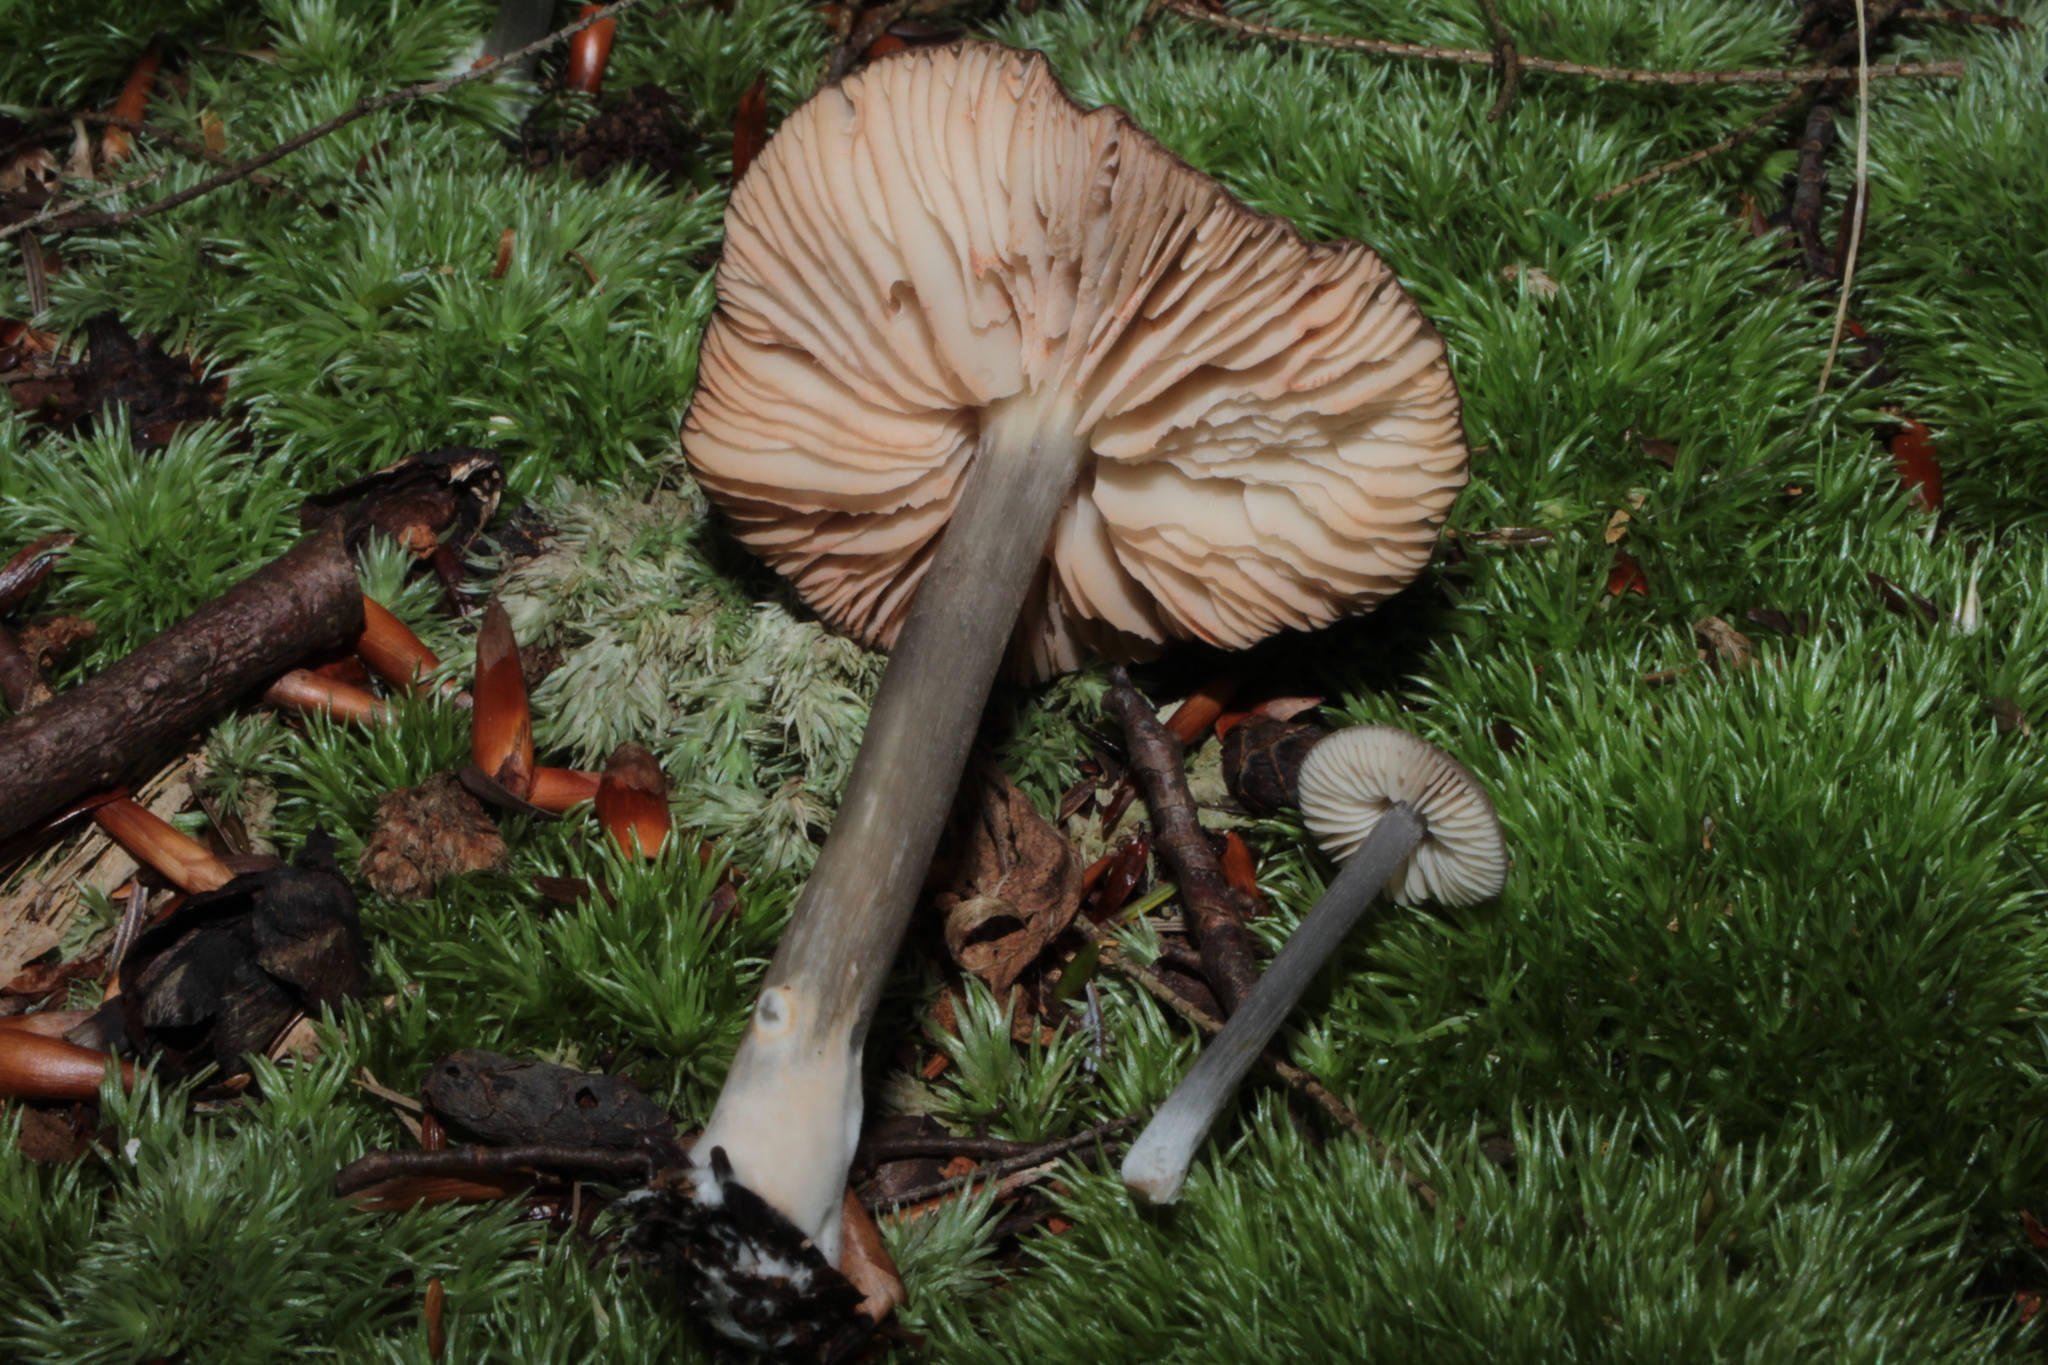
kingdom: Fungi
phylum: Basidiomycota
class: Agaricomycetes
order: Agaricales
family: Entolomataceae
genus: Entoloma
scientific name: Entoloma fuscosquamosum
